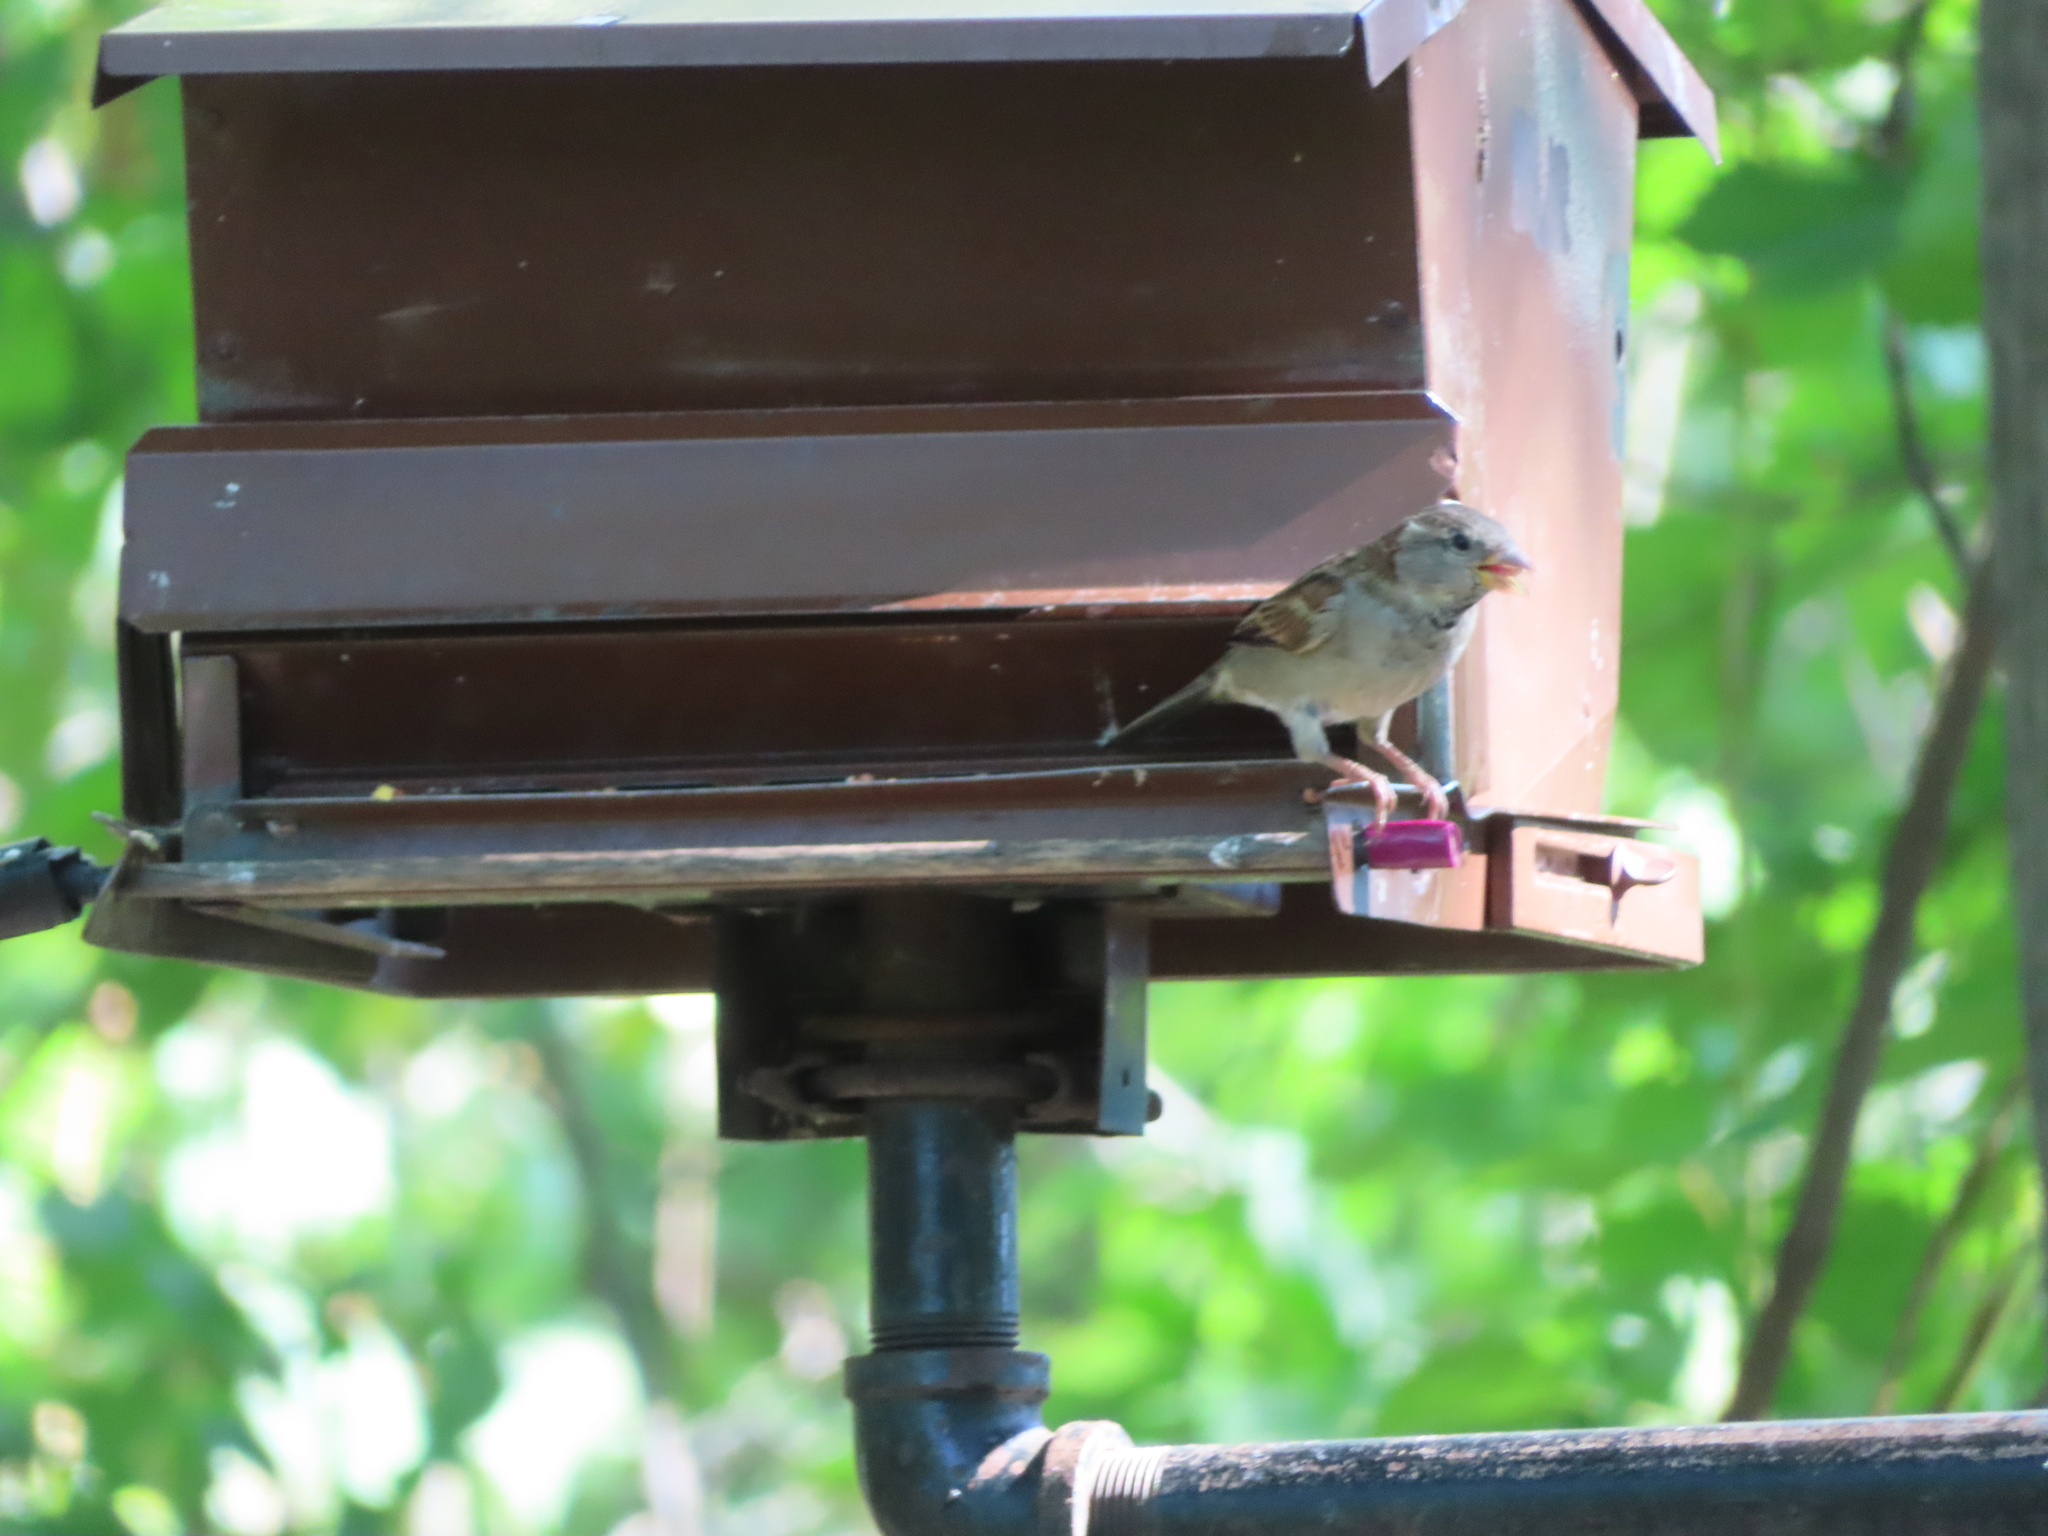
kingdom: Animalia
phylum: Chordata
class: Aves
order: Passeriformes
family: Passeridae
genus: Passer
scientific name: Passer domesticus
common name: House sparrow
